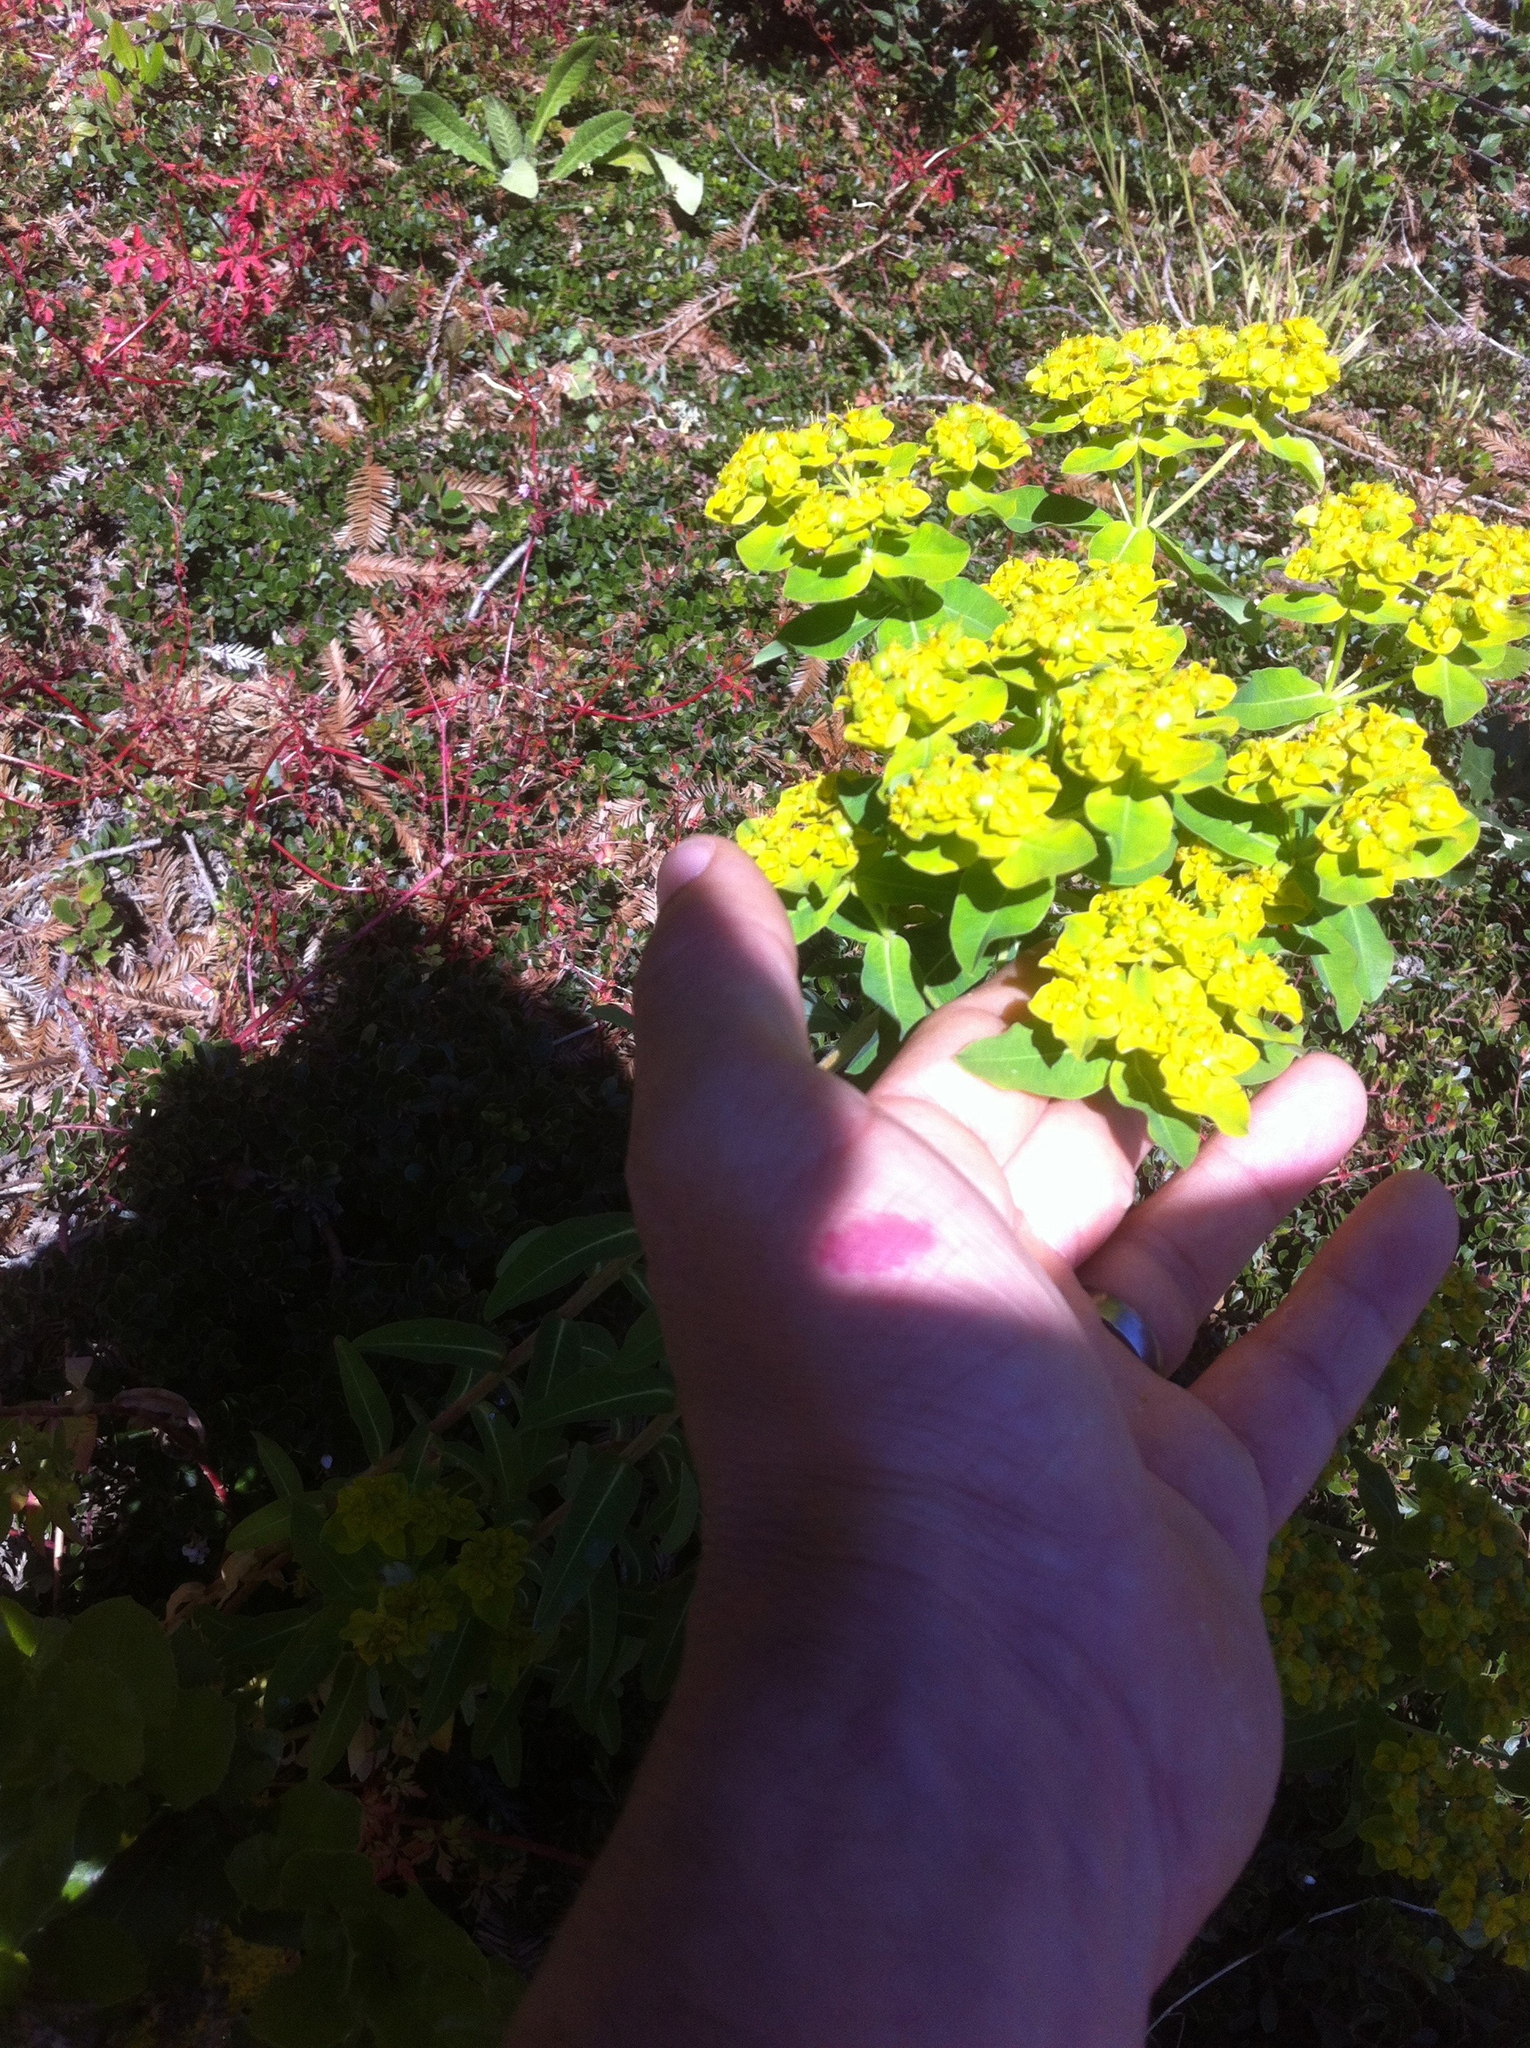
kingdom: Plantae
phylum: Tracheophyta
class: Magnoliopsida
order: Malpighiales
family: Euphorbiaceae
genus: Euphorbia
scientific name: Euphorbia oblongata
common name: Balkan spurge
